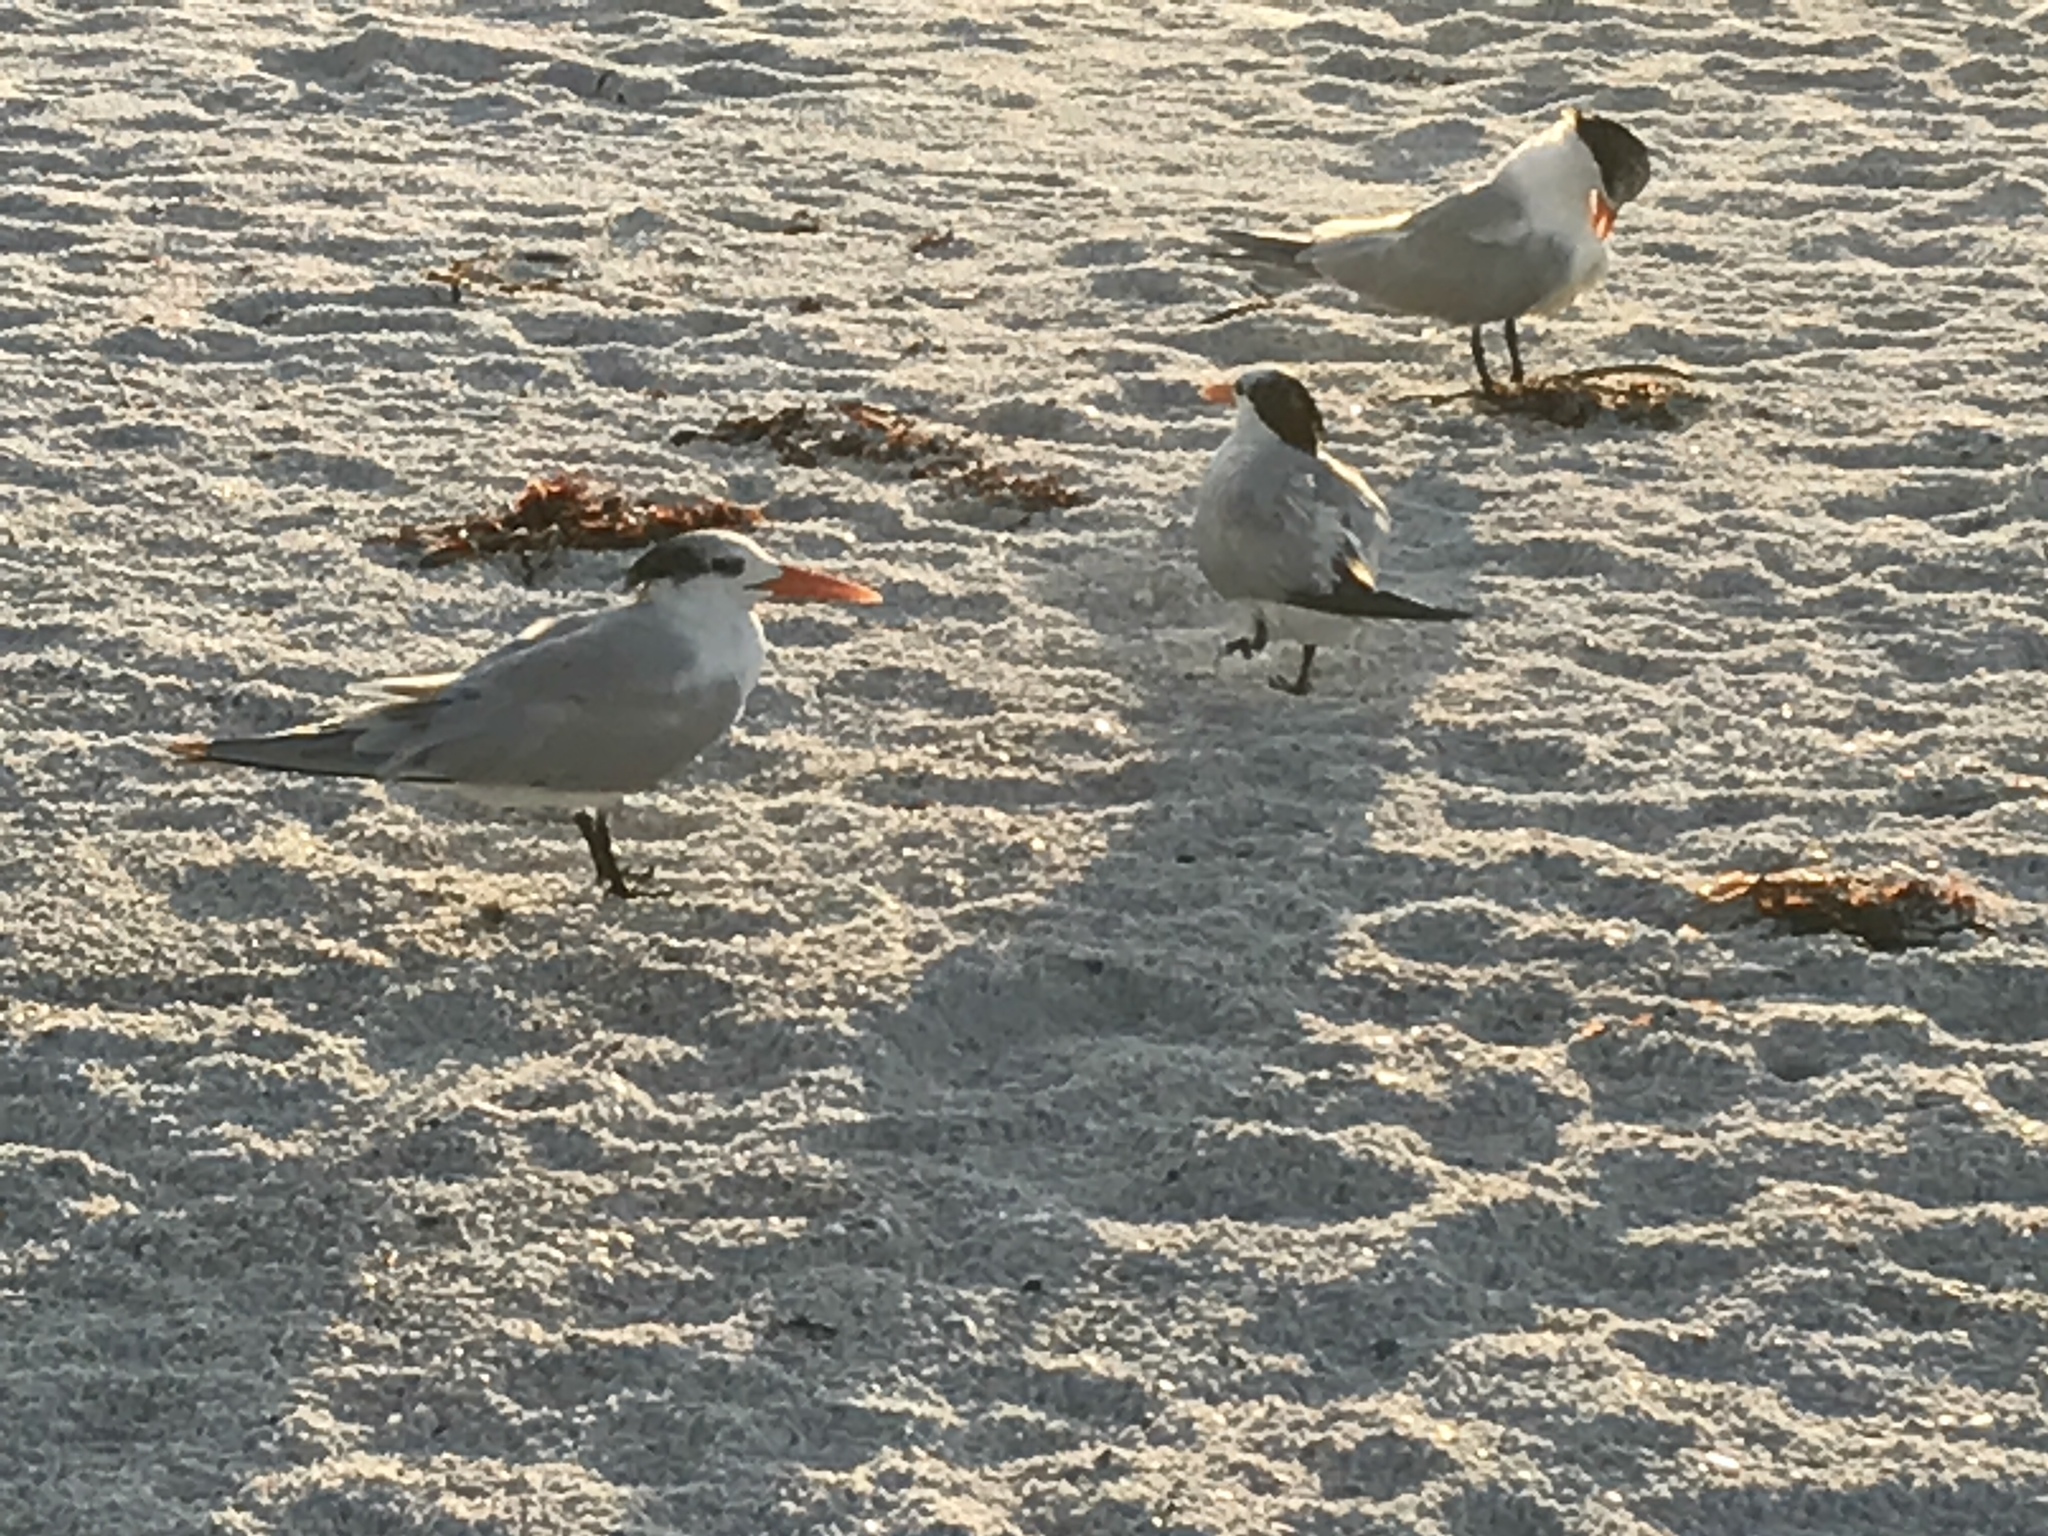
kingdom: Animalia
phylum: Chordata
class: Aves
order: Charadriiformes
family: Laridae
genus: Thalasseus
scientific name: Thalasseus maximus
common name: Royal tern
